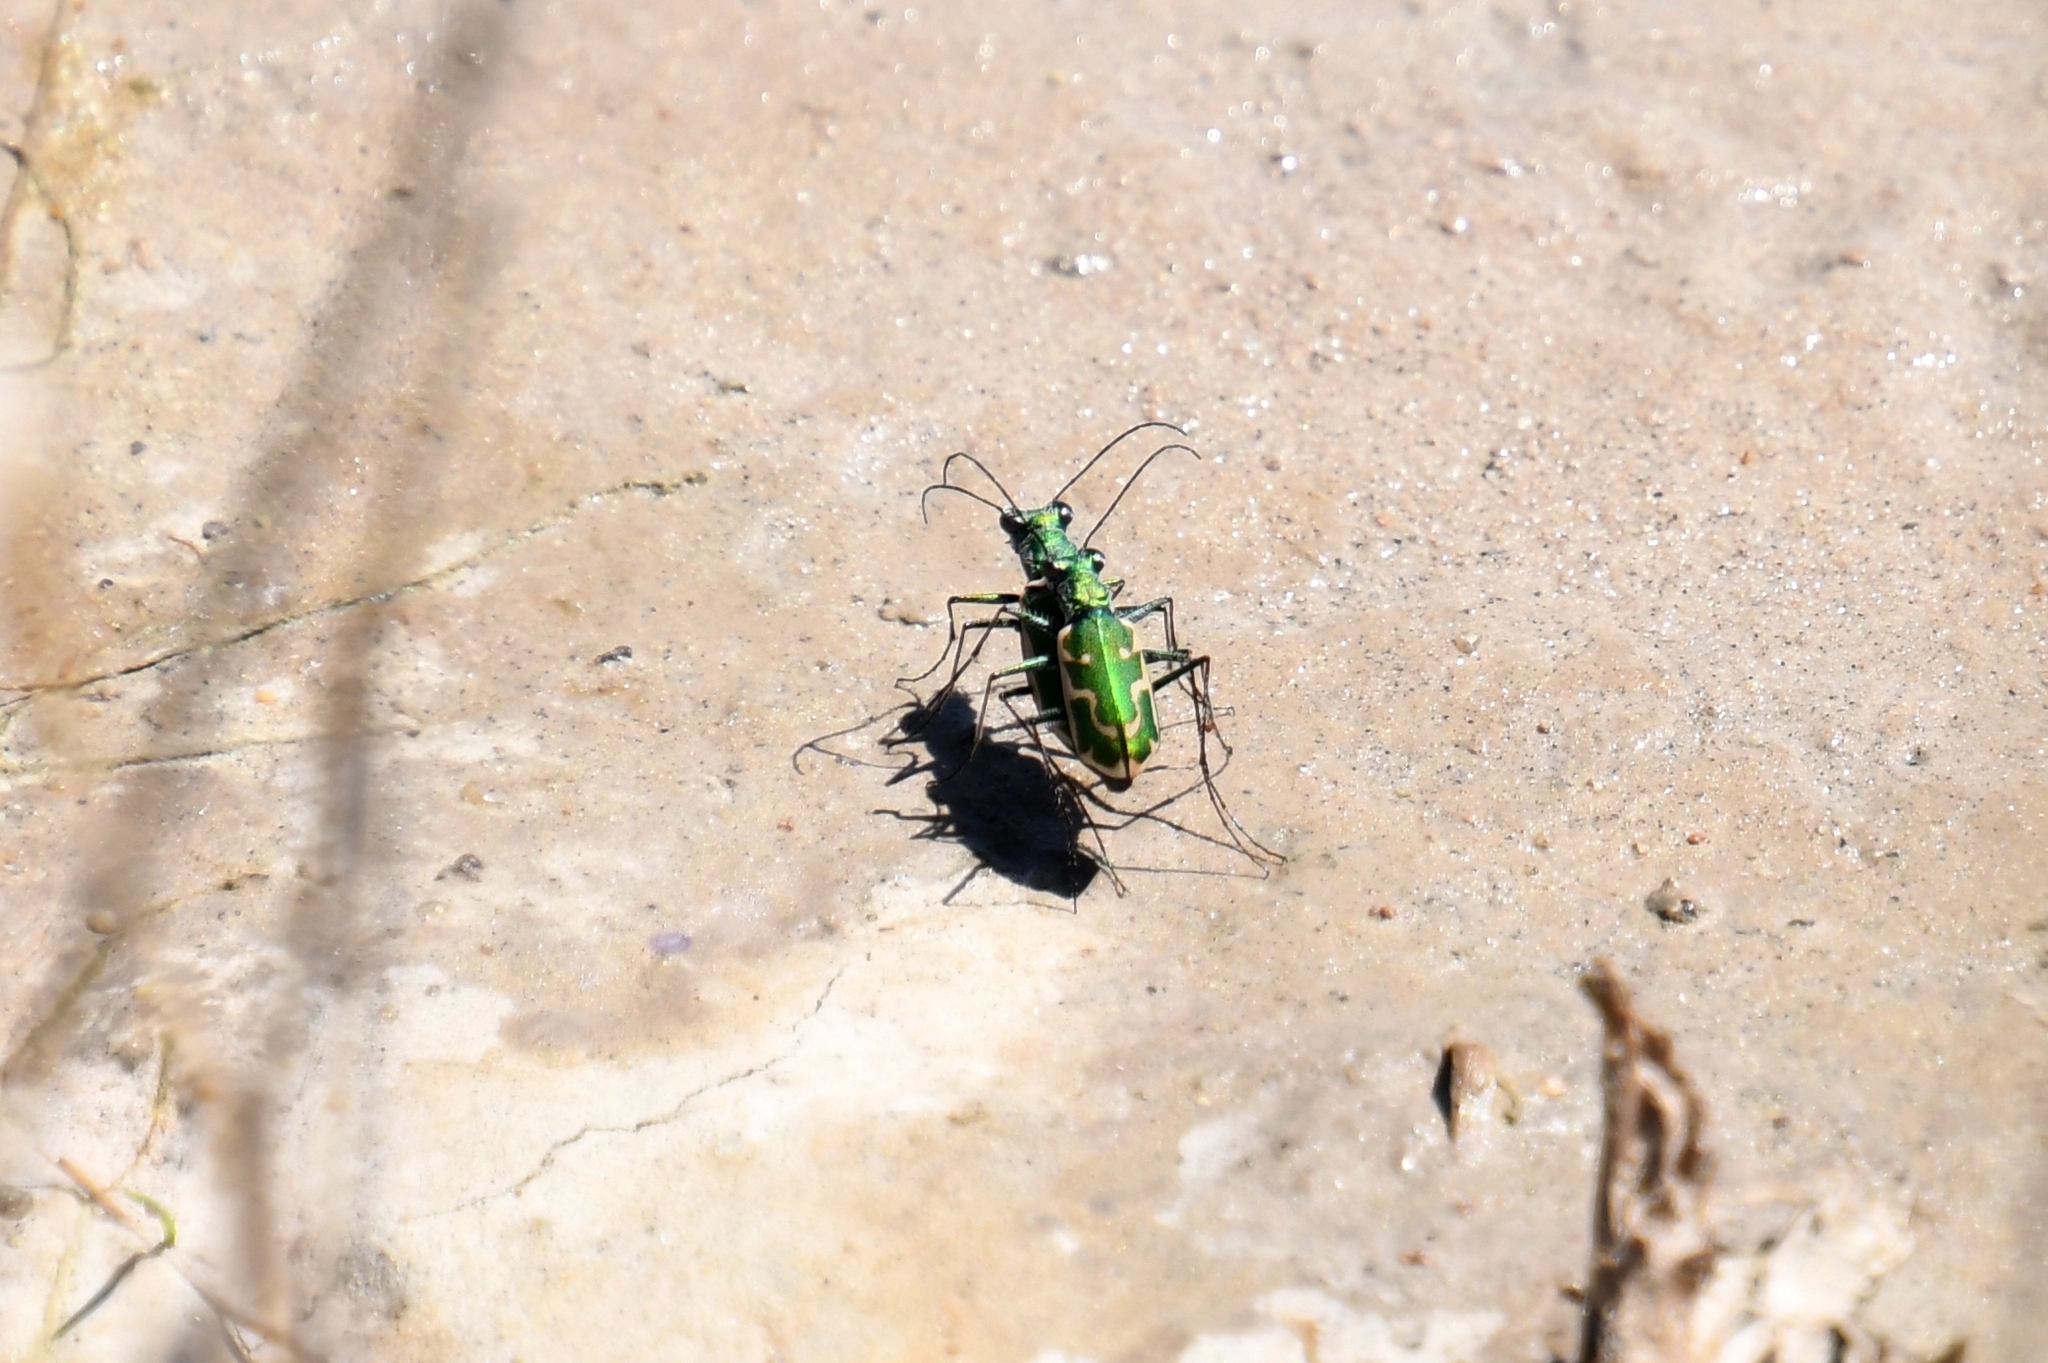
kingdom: Animalia
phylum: Arthropoda
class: Insecta
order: Coleoptera
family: Carabidae
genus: Ellipsoptera
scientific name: Ellipsoptera rubicunda
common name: Aridland tiger beetle
